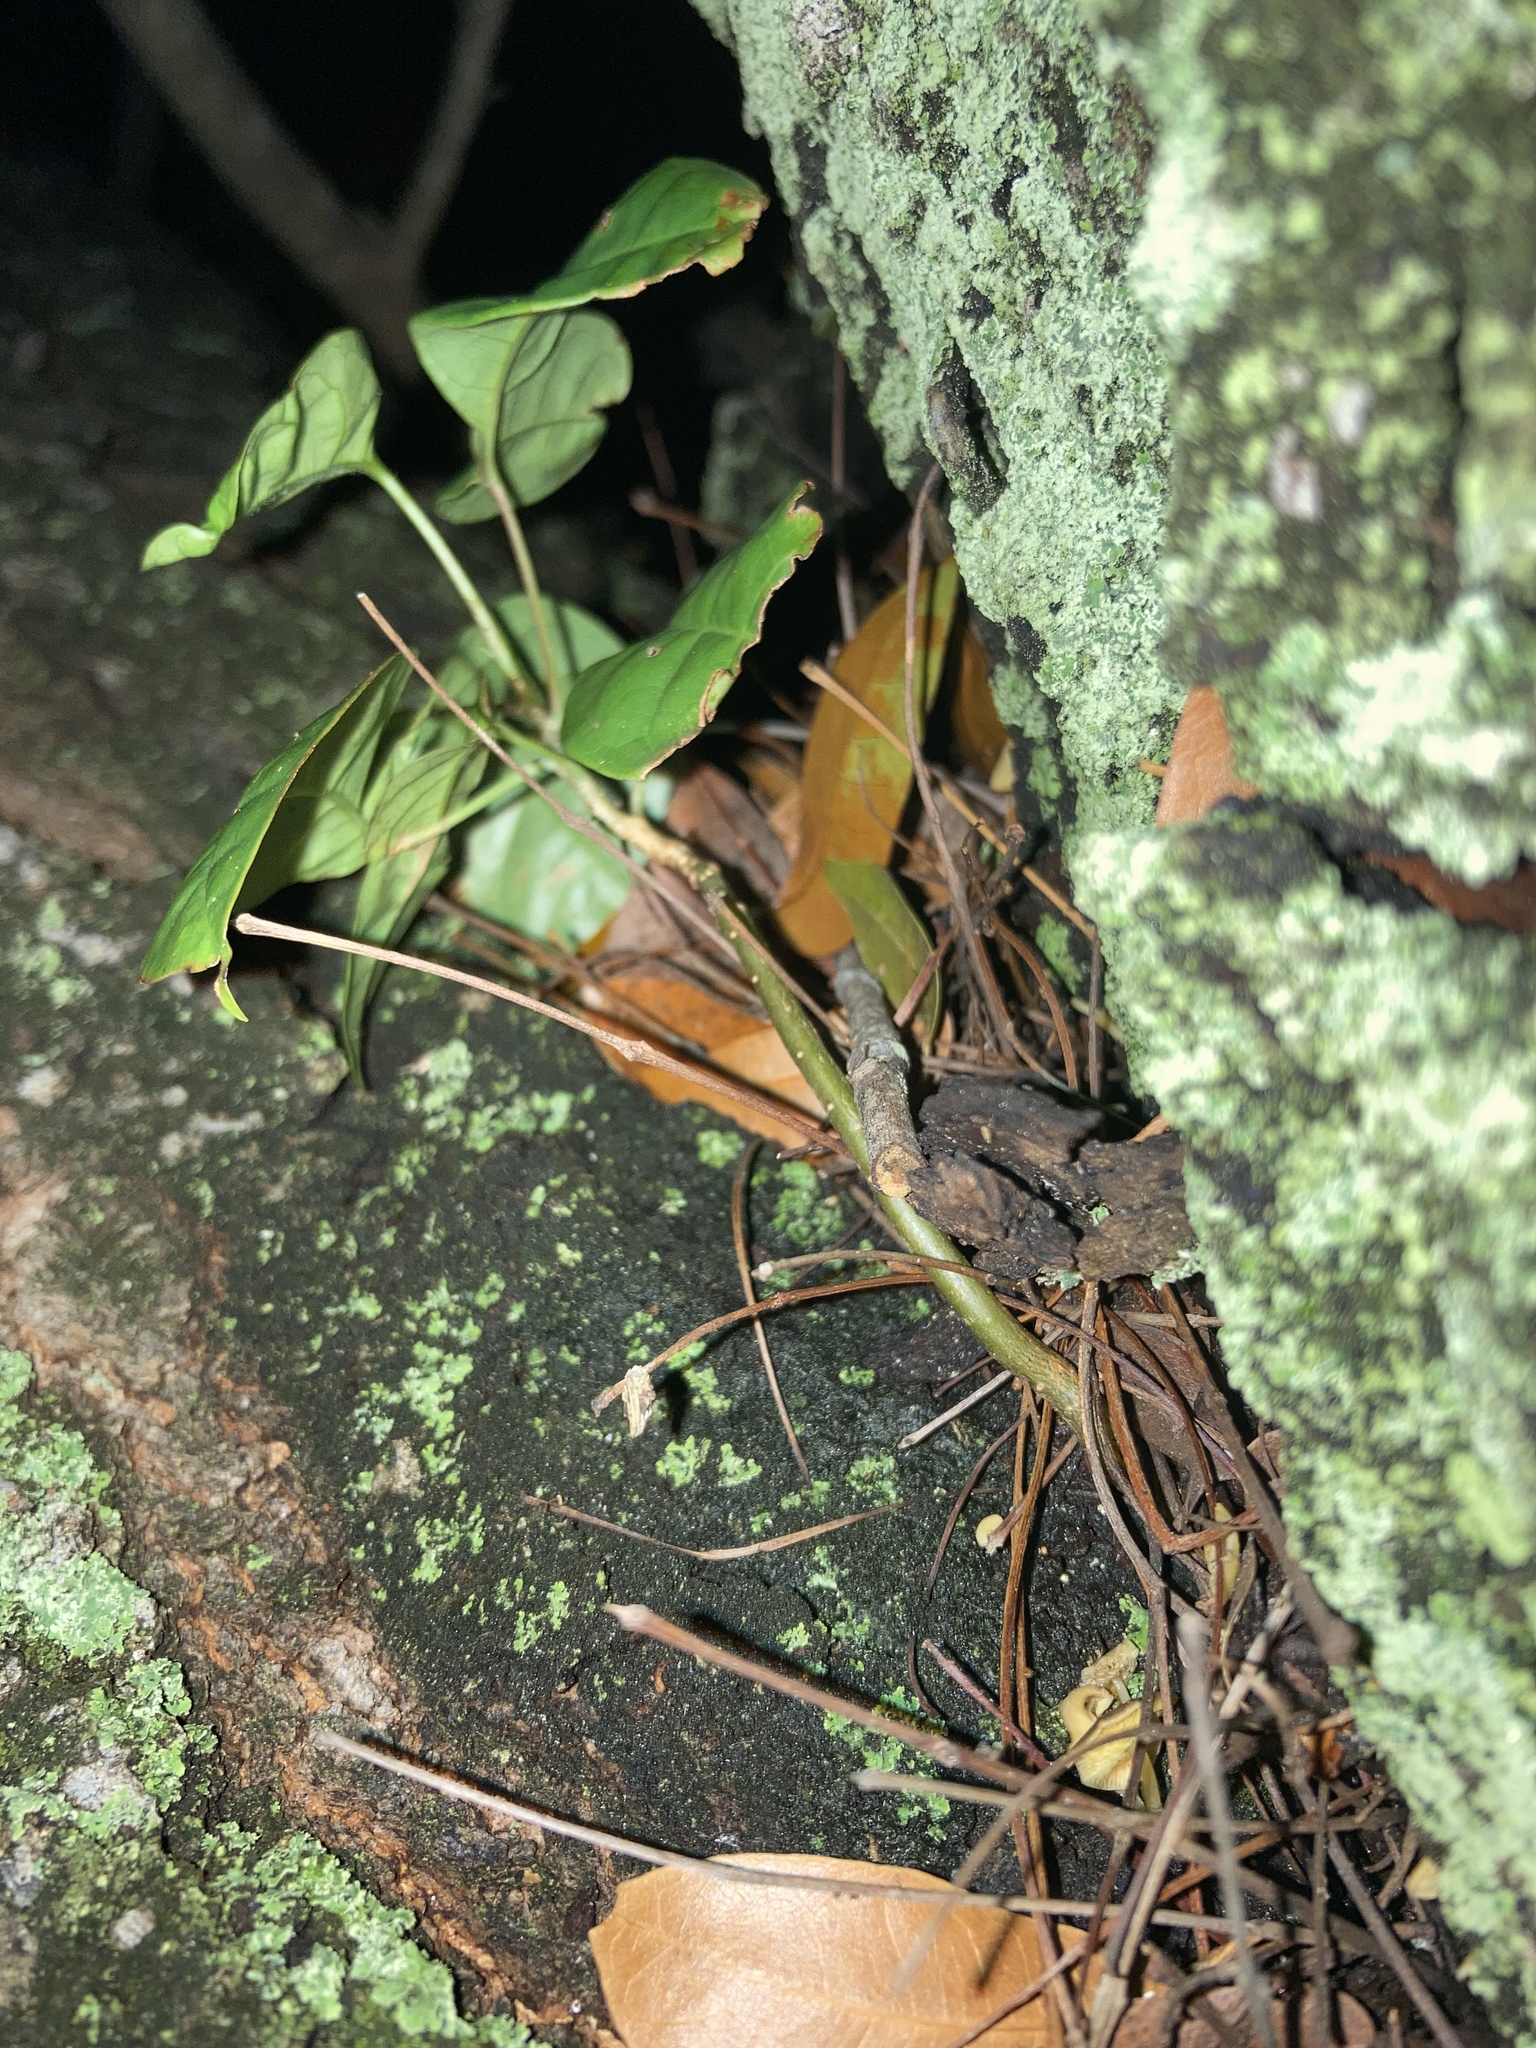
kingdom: Plantae
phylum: Tracheophyta
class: Magnoliopsida
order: Sapindales
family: Burseraceae
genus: Bursera
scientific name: Bursera simaruba
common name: Turpentine tree
